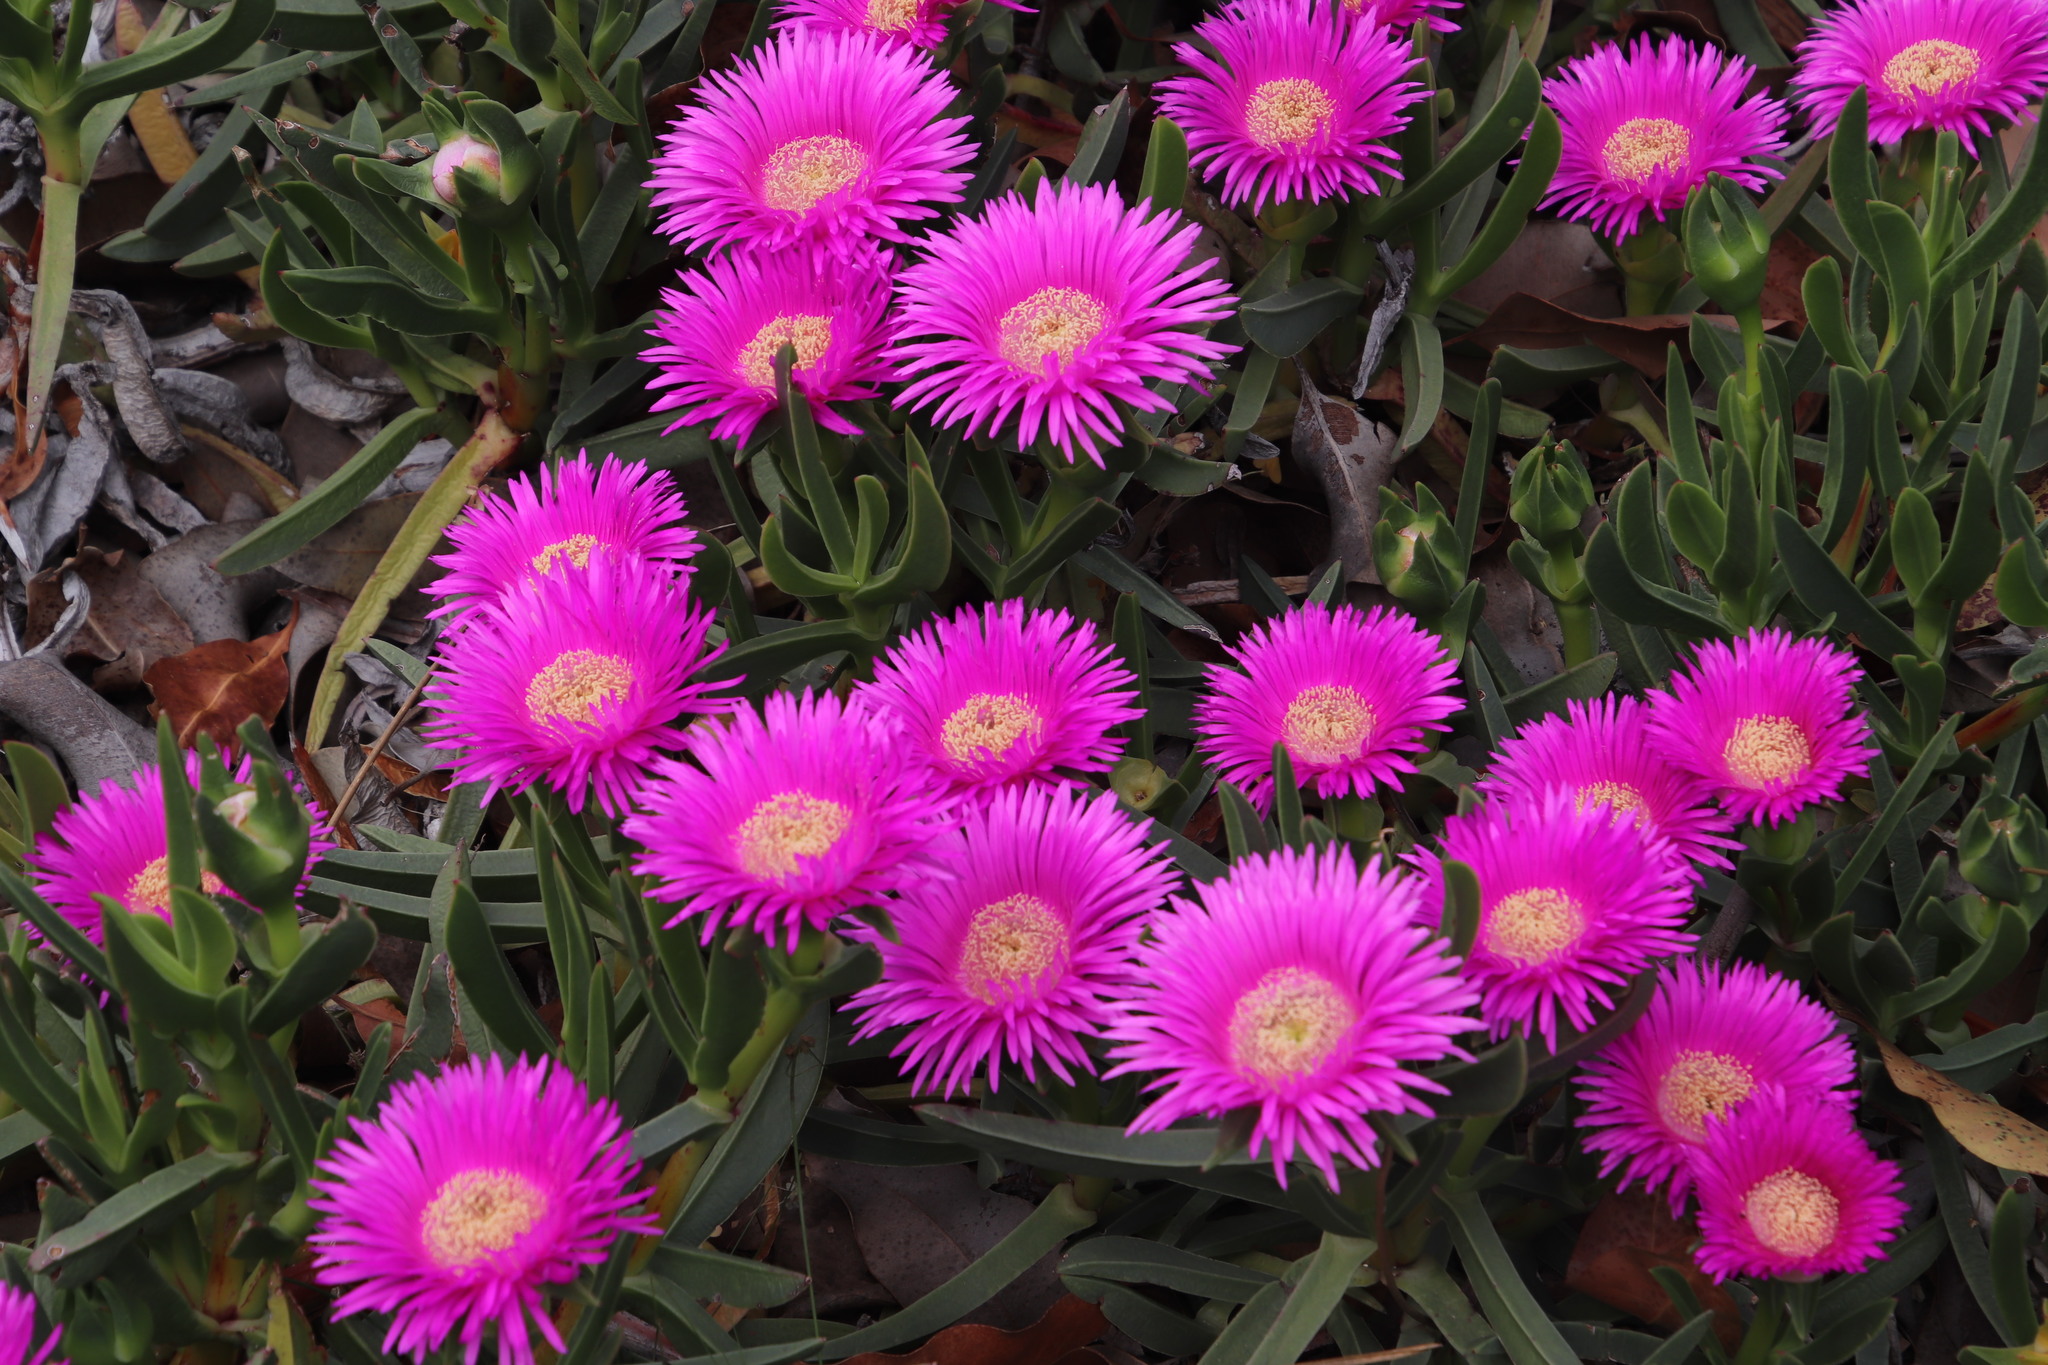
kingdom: Plantae
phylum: Tracheophyta
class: Magnoliopsida
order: Caryophyllales
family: Aizoaceae
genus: Carpobrotus
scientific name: Carpobrotus acinaciformis
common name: Sally-my-handsome
